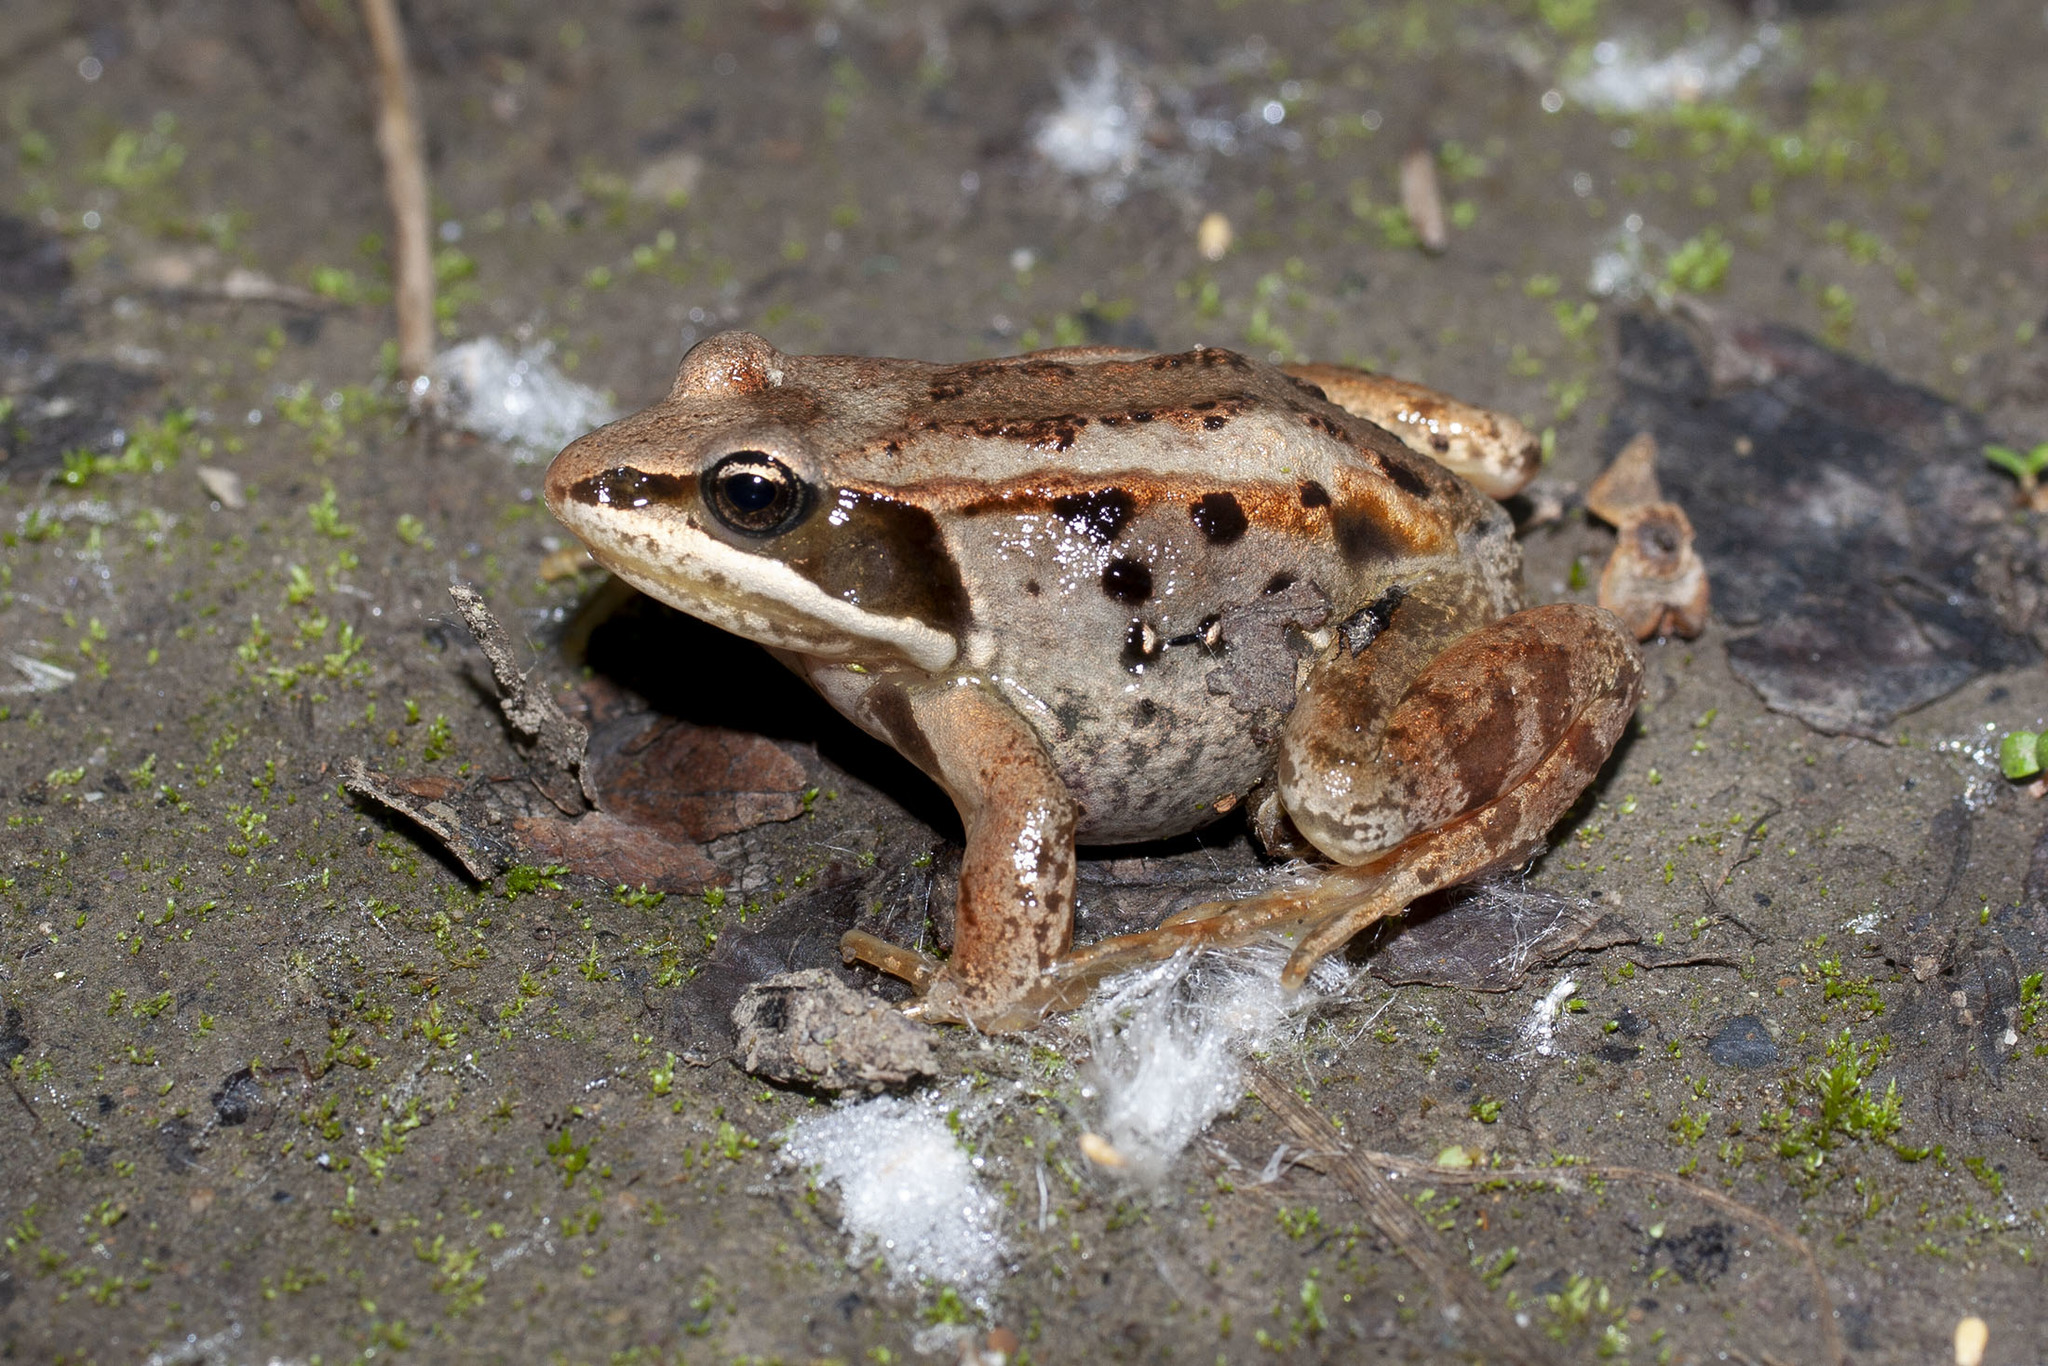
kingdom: Animalia
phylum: Chordata
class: Amphibia
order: Anura
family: Ranidae
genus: Lithobates
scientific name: Lithobates sylvaticus
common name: Wood frog
